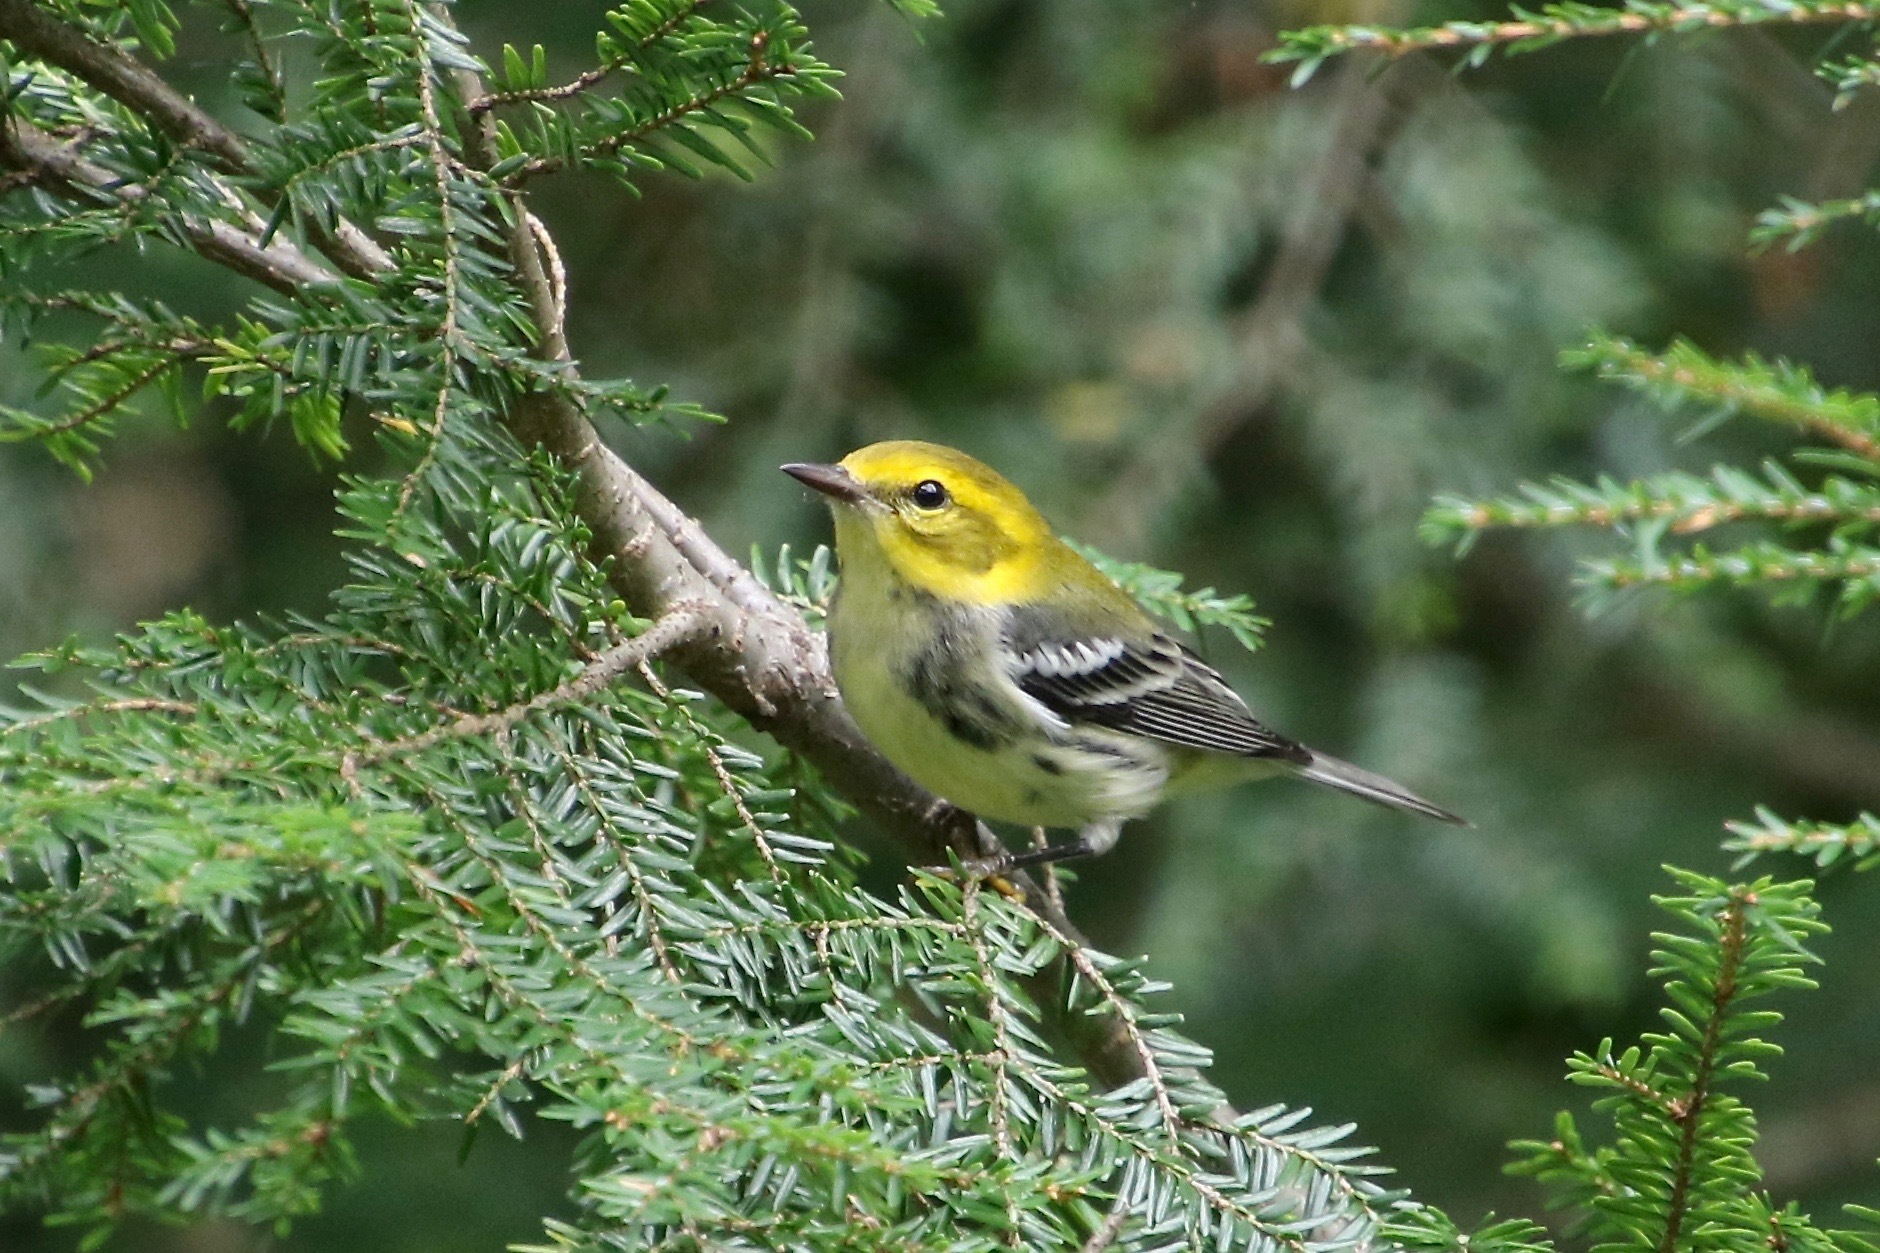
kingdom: Animalia
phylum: Chordata
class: Aves
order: Passeriformes
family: Parulidae
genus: Setophaga
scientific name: Setophaga virens
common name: Black-throated green warbler
